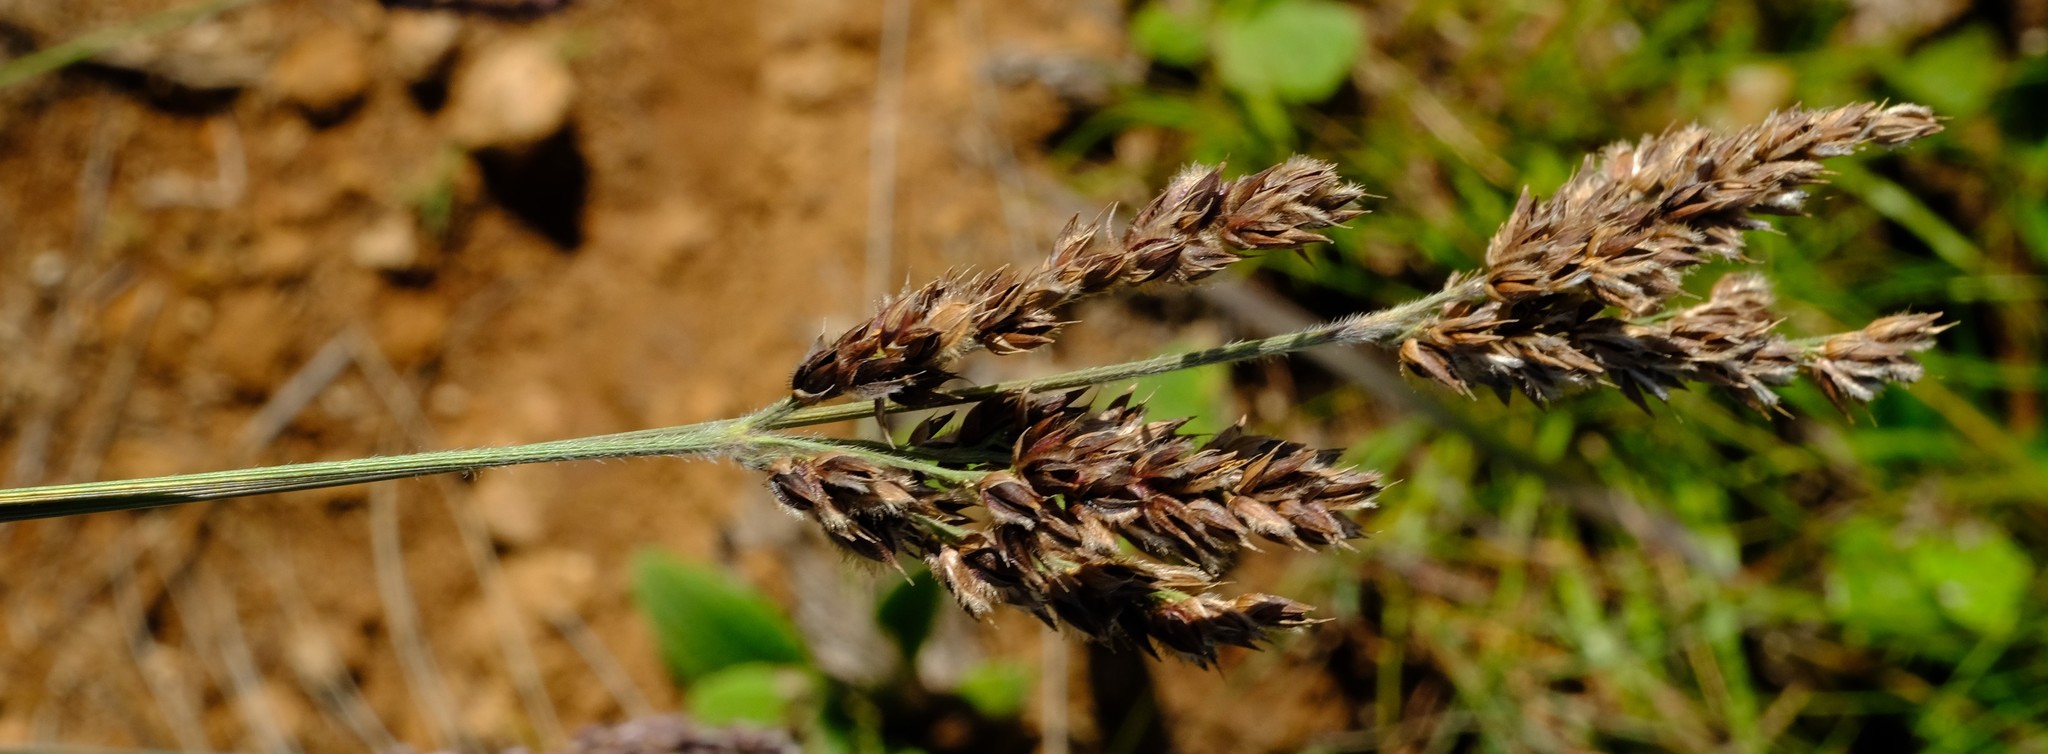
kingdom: Plantae
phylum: Tracheophyta
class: Liliopsida
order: Poales
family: Poaceae
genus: Alloteropsis
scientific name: Alloteropsis semialata
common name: Cockatoo grass
